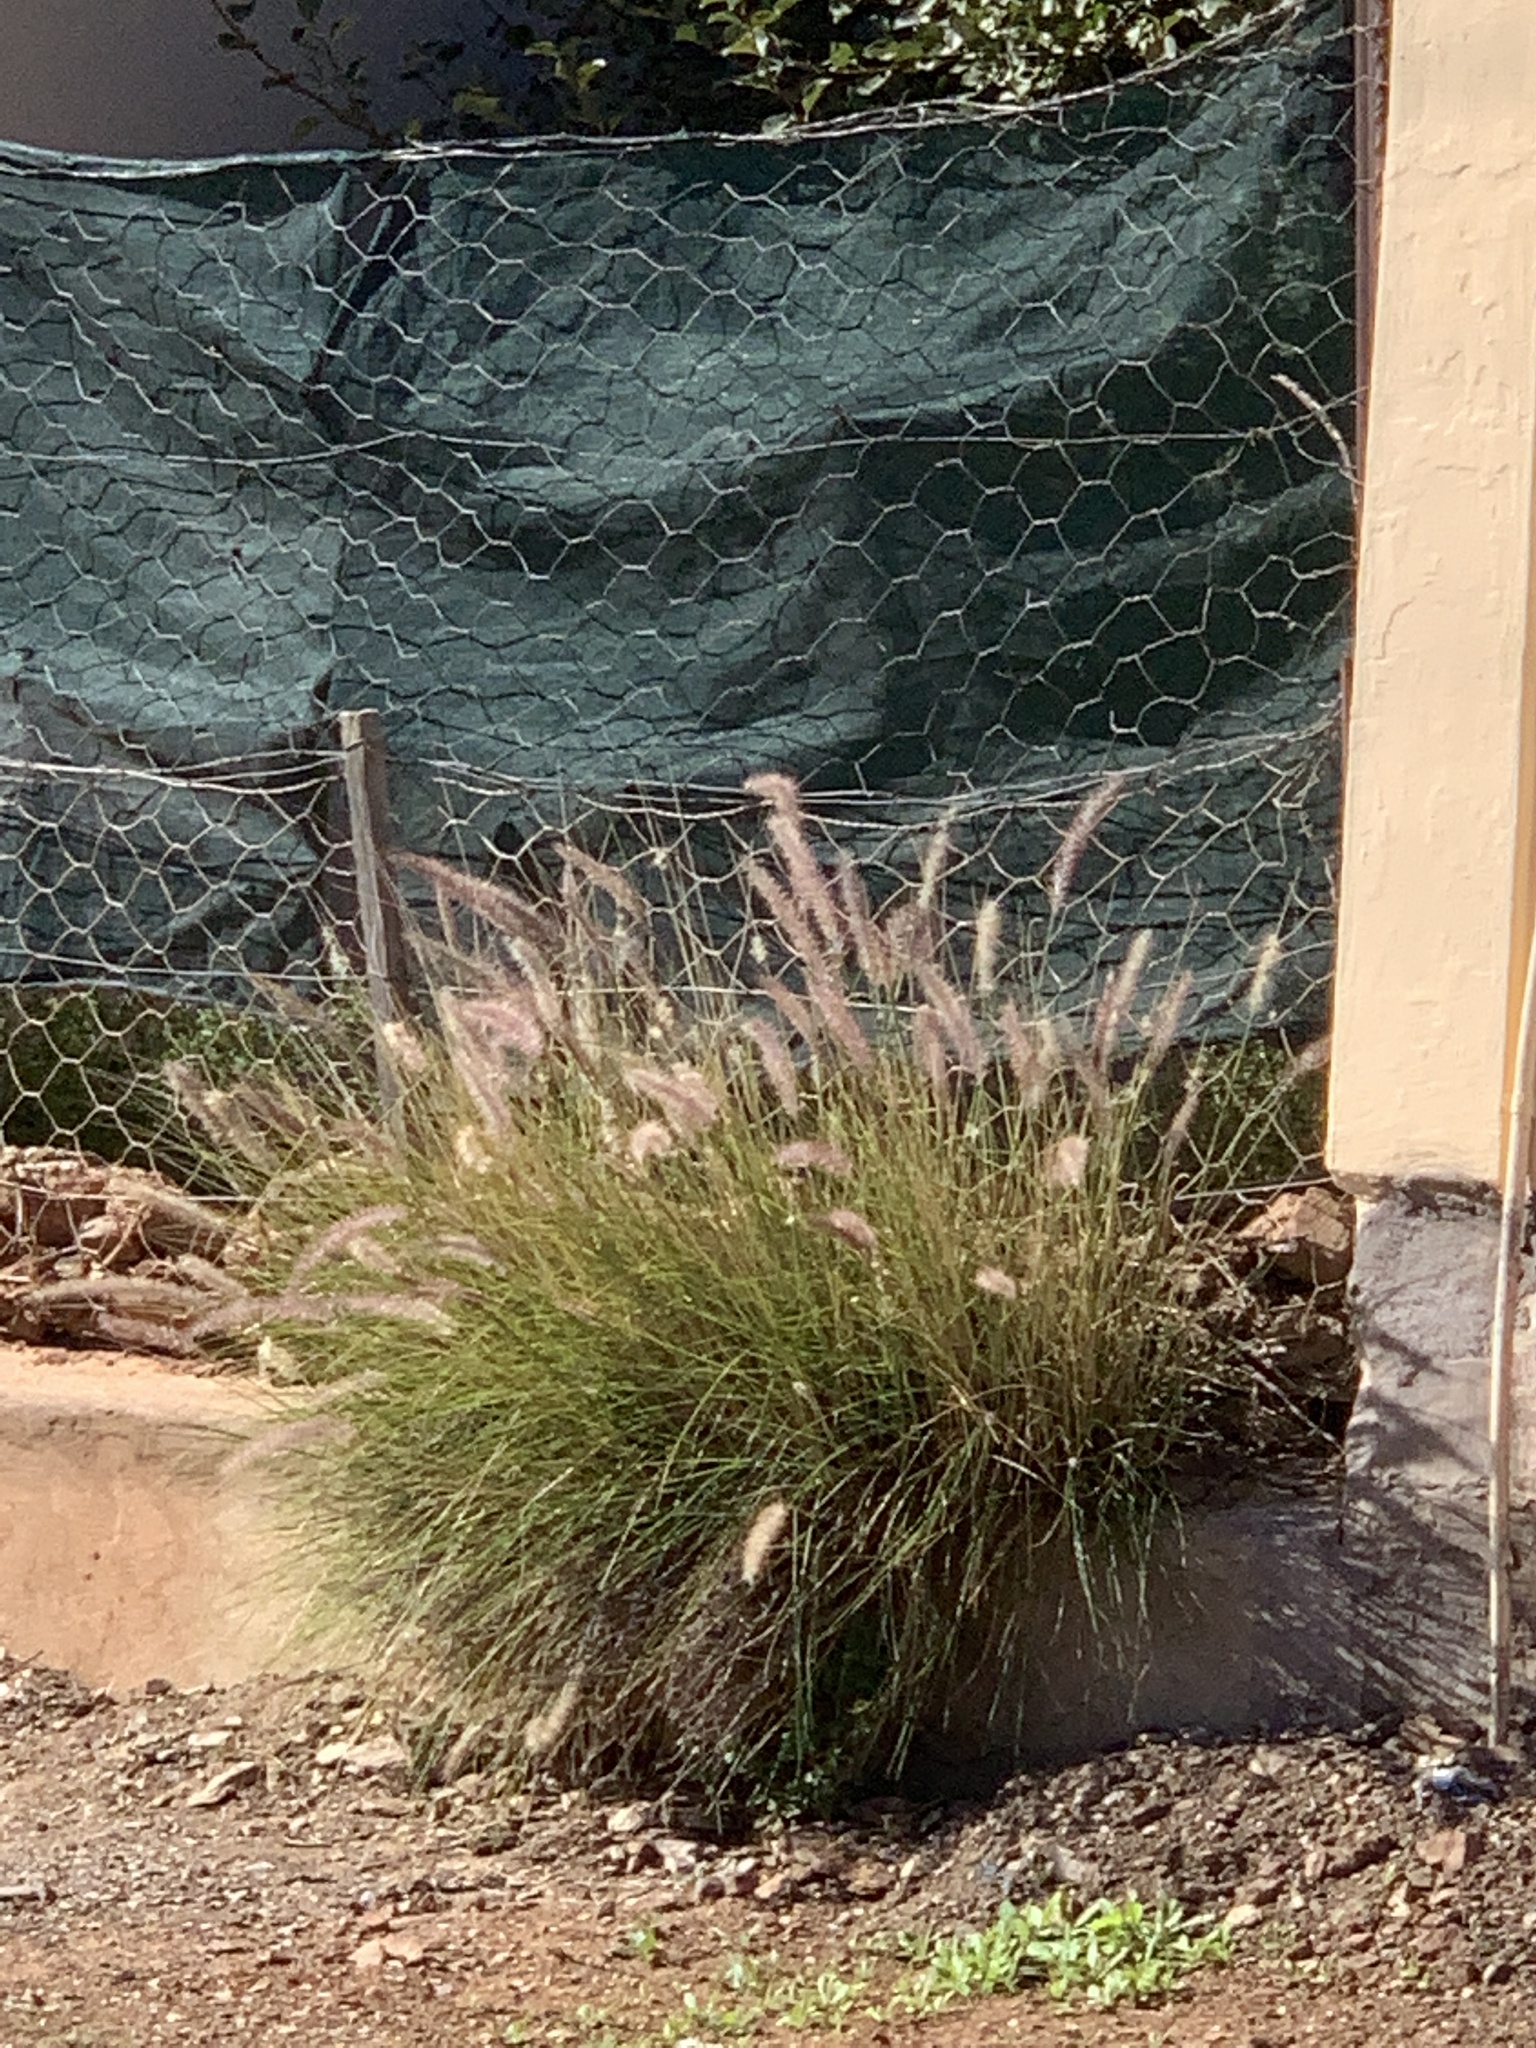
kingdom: Plantae
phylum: Tracheophyta
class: Liliopsida
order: Poales
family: Poaceae
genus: Cenchrus
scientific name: Cenchrus setaceus
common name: Crimson fountaingrass
